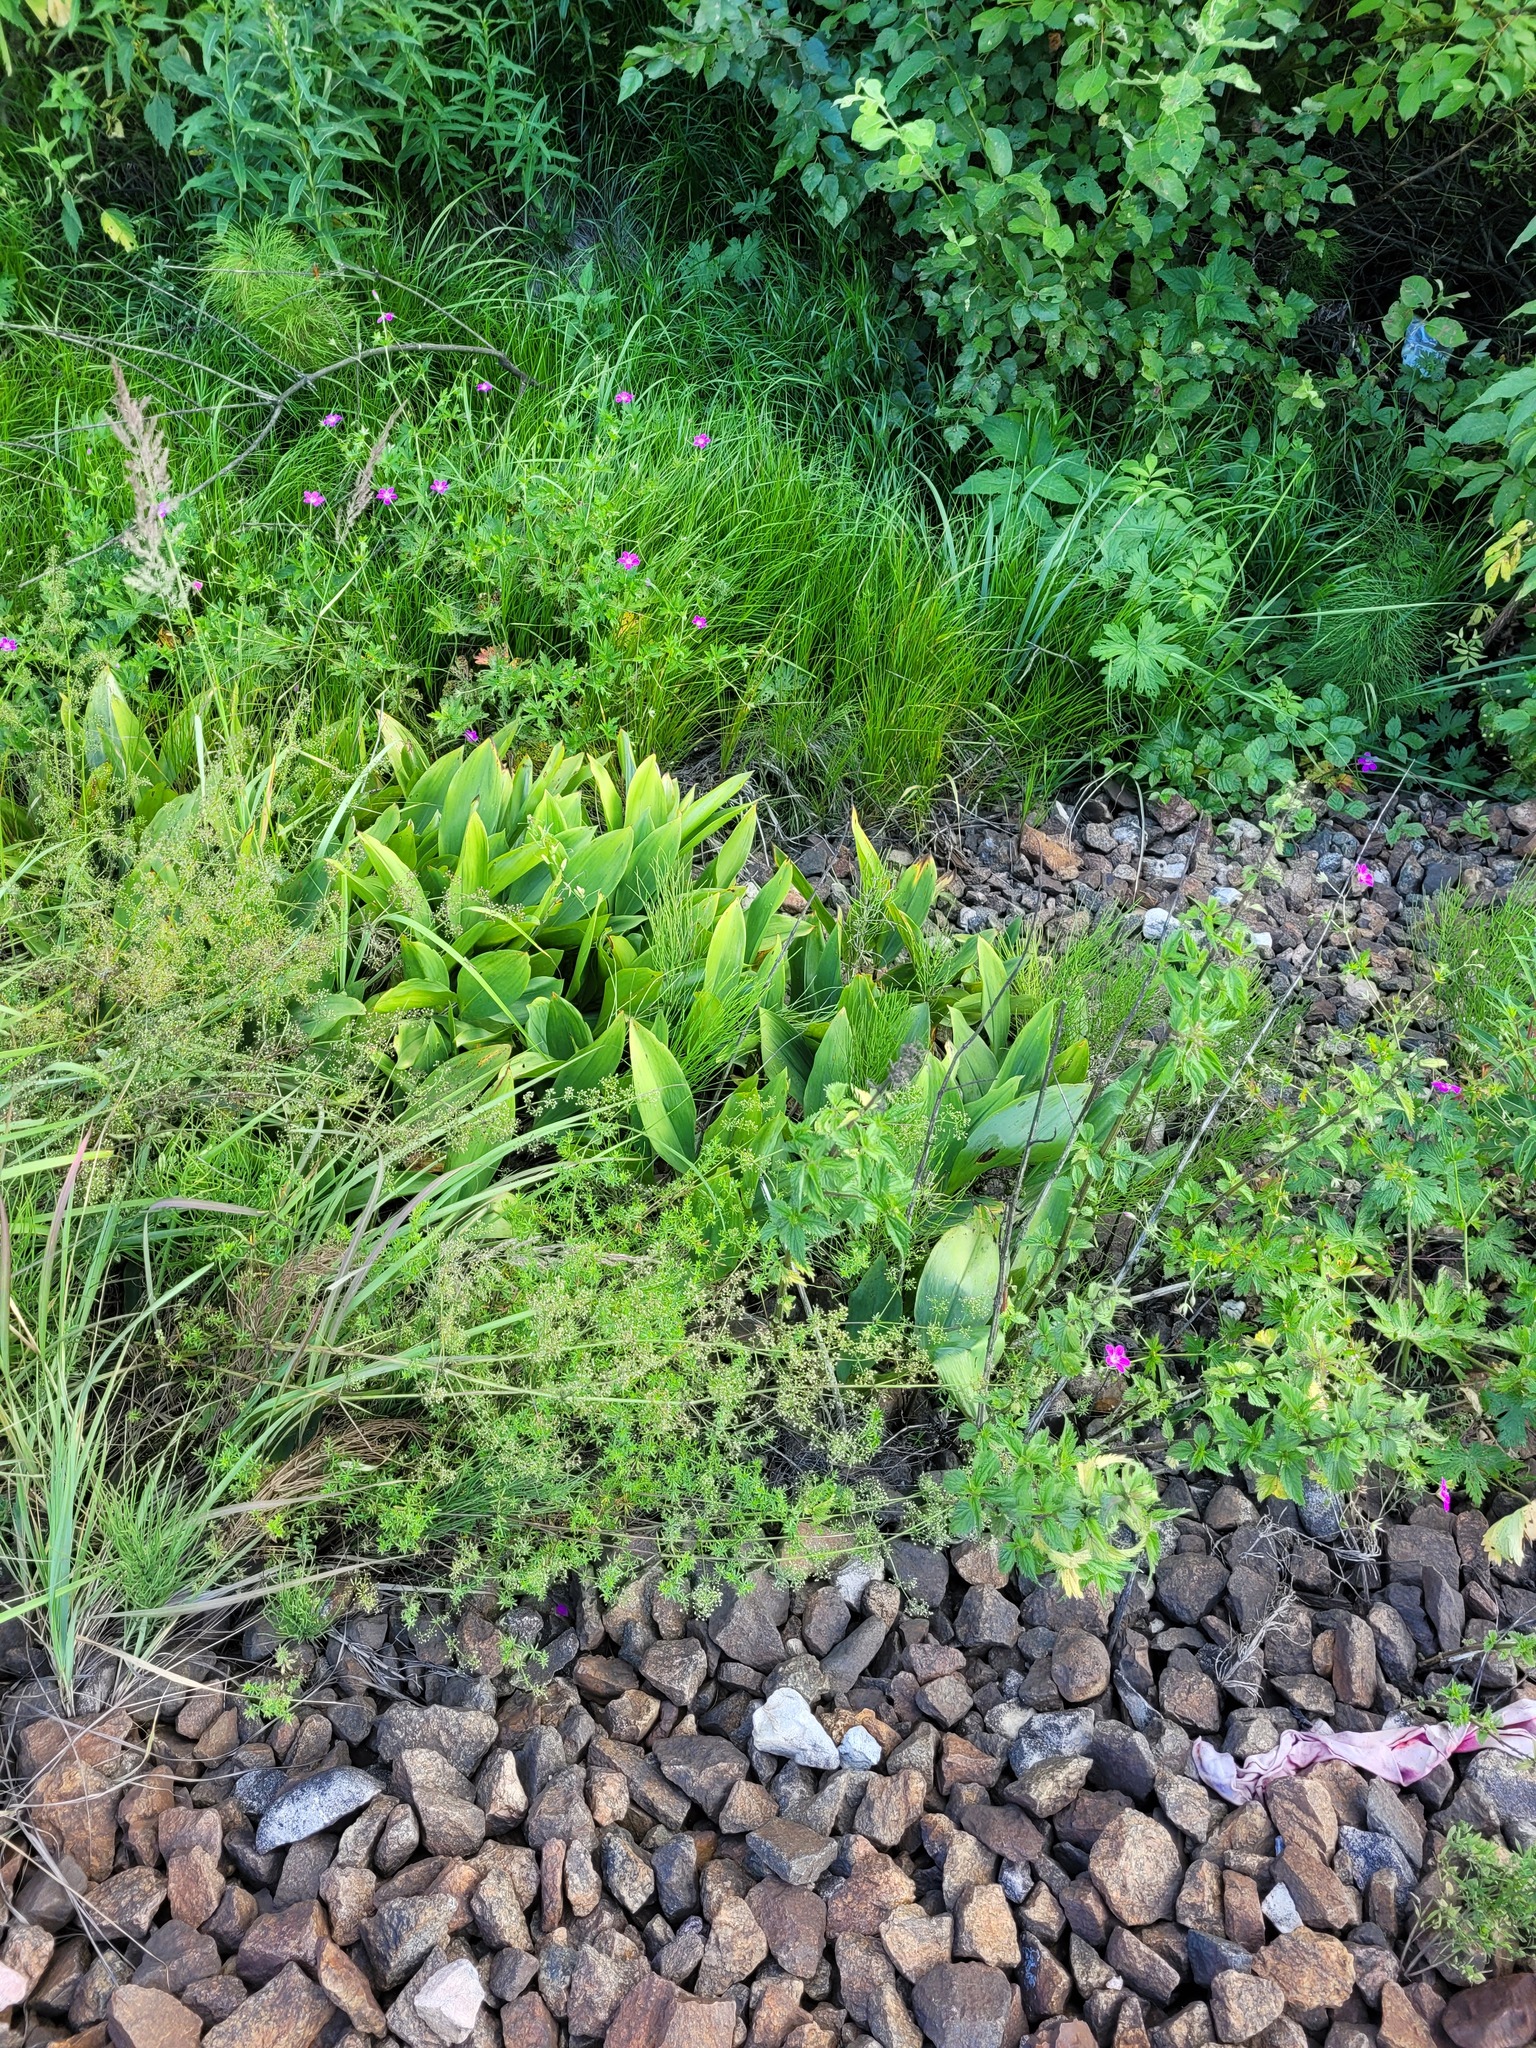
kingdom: Plantae
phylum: Tracheophyta
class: Liliopsida
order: Asparagales
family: Asparagaceae
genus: Convallaria
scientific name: Convallaria majalis
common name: Lily-of-the-valley
